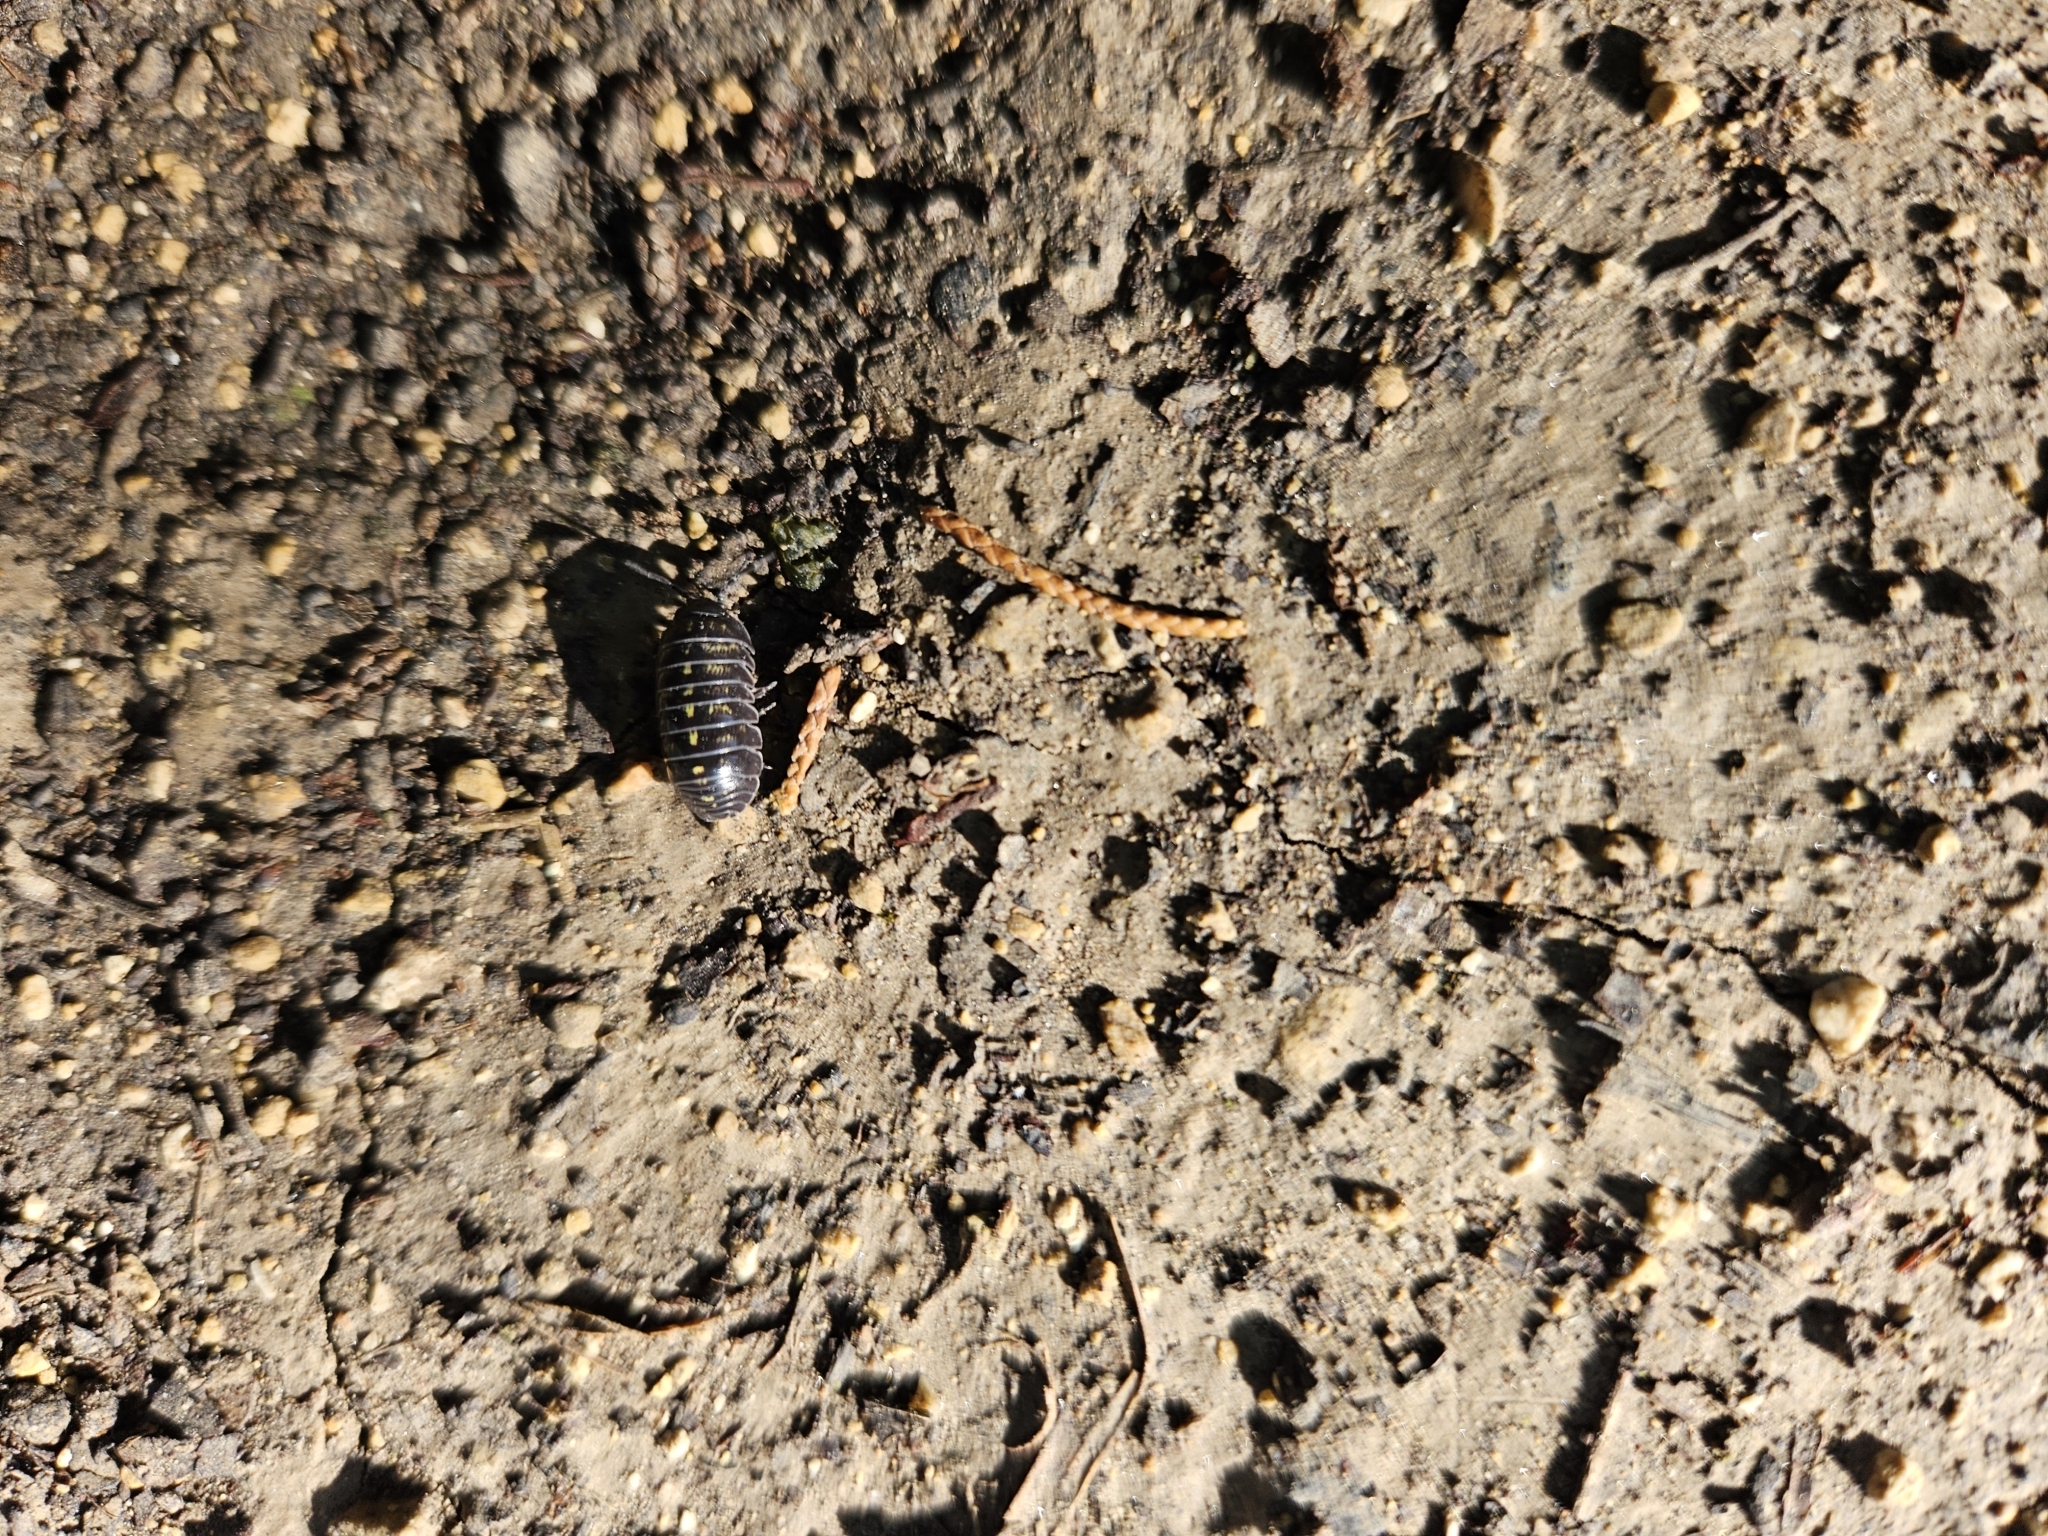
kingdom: Animalia
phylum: Arthropoda
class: Malacostraca
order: Isopoda
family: Armadillidiidae
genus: Armadillidium
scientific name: Armadillidium vulgare
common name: Common pill woodlouse
